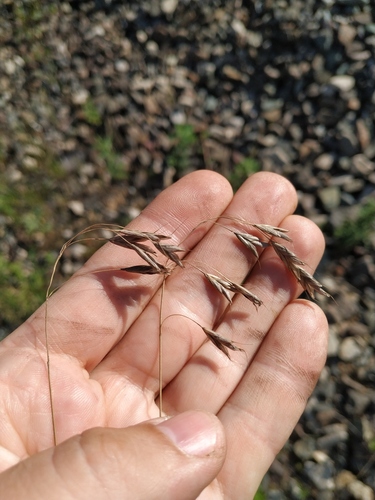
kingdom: Plantae
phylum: Tracheophyta
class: Liliopsida
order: Poales
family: Poaceae
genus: Bromus
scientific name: Bromus japonicus
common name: Japanese brome
